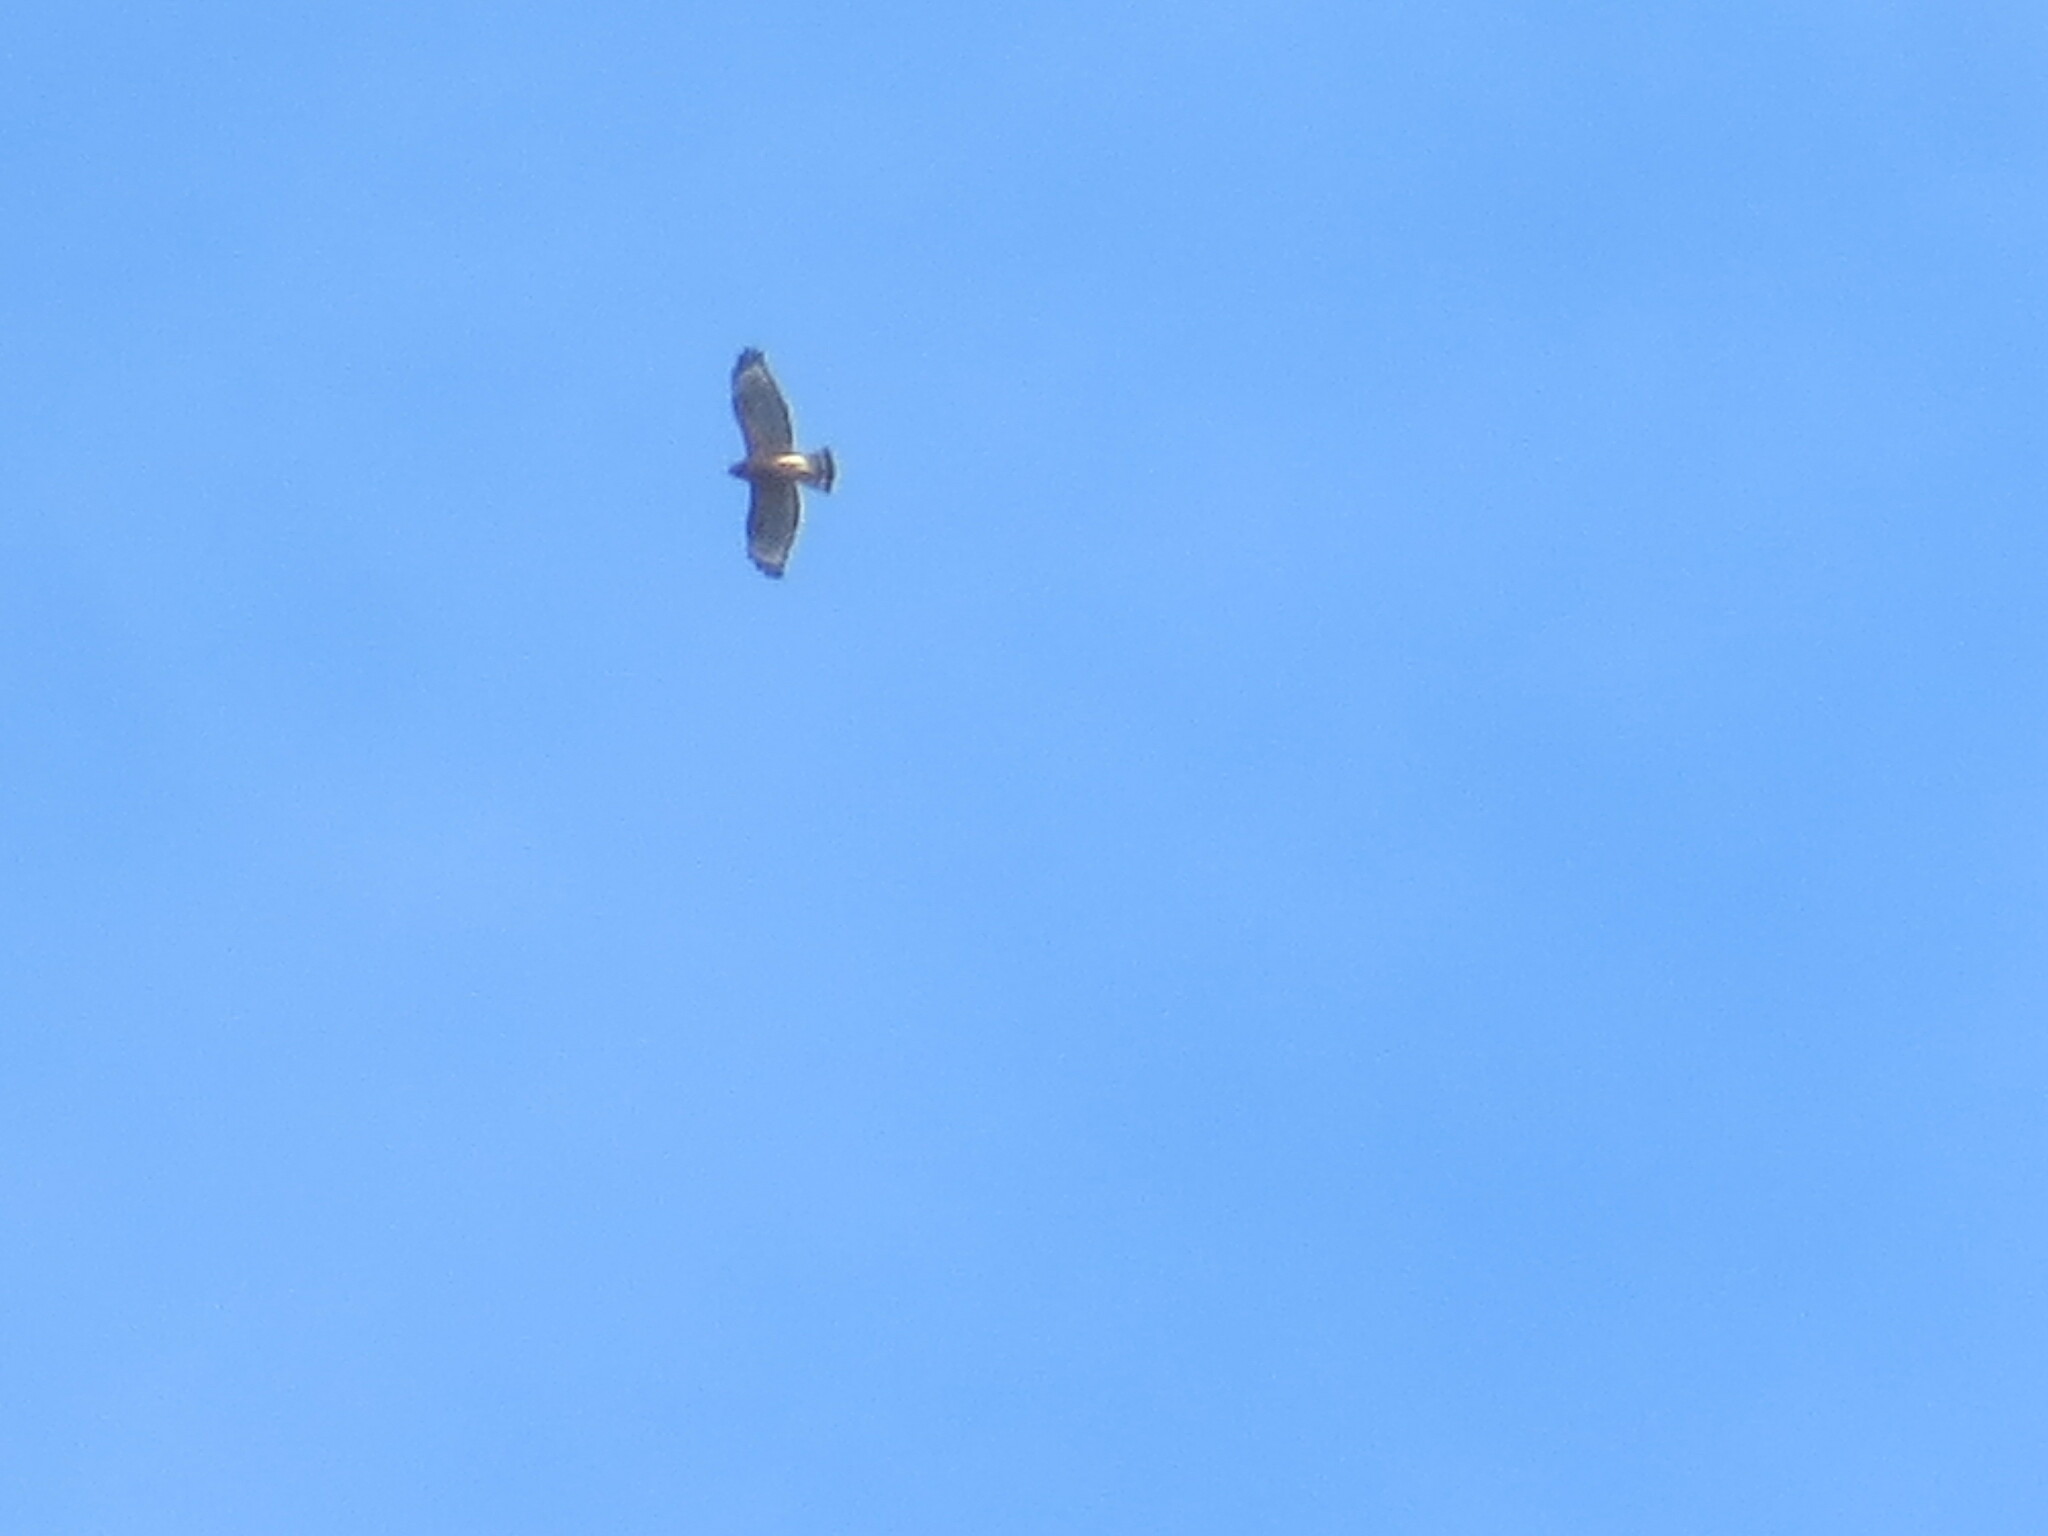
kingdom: Animalia
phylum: Chordata
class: Aves
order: Accipitriformes
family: Accipitridae
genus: Buteo
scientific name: Buteo lineatus
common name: Red-shouldered hawk
